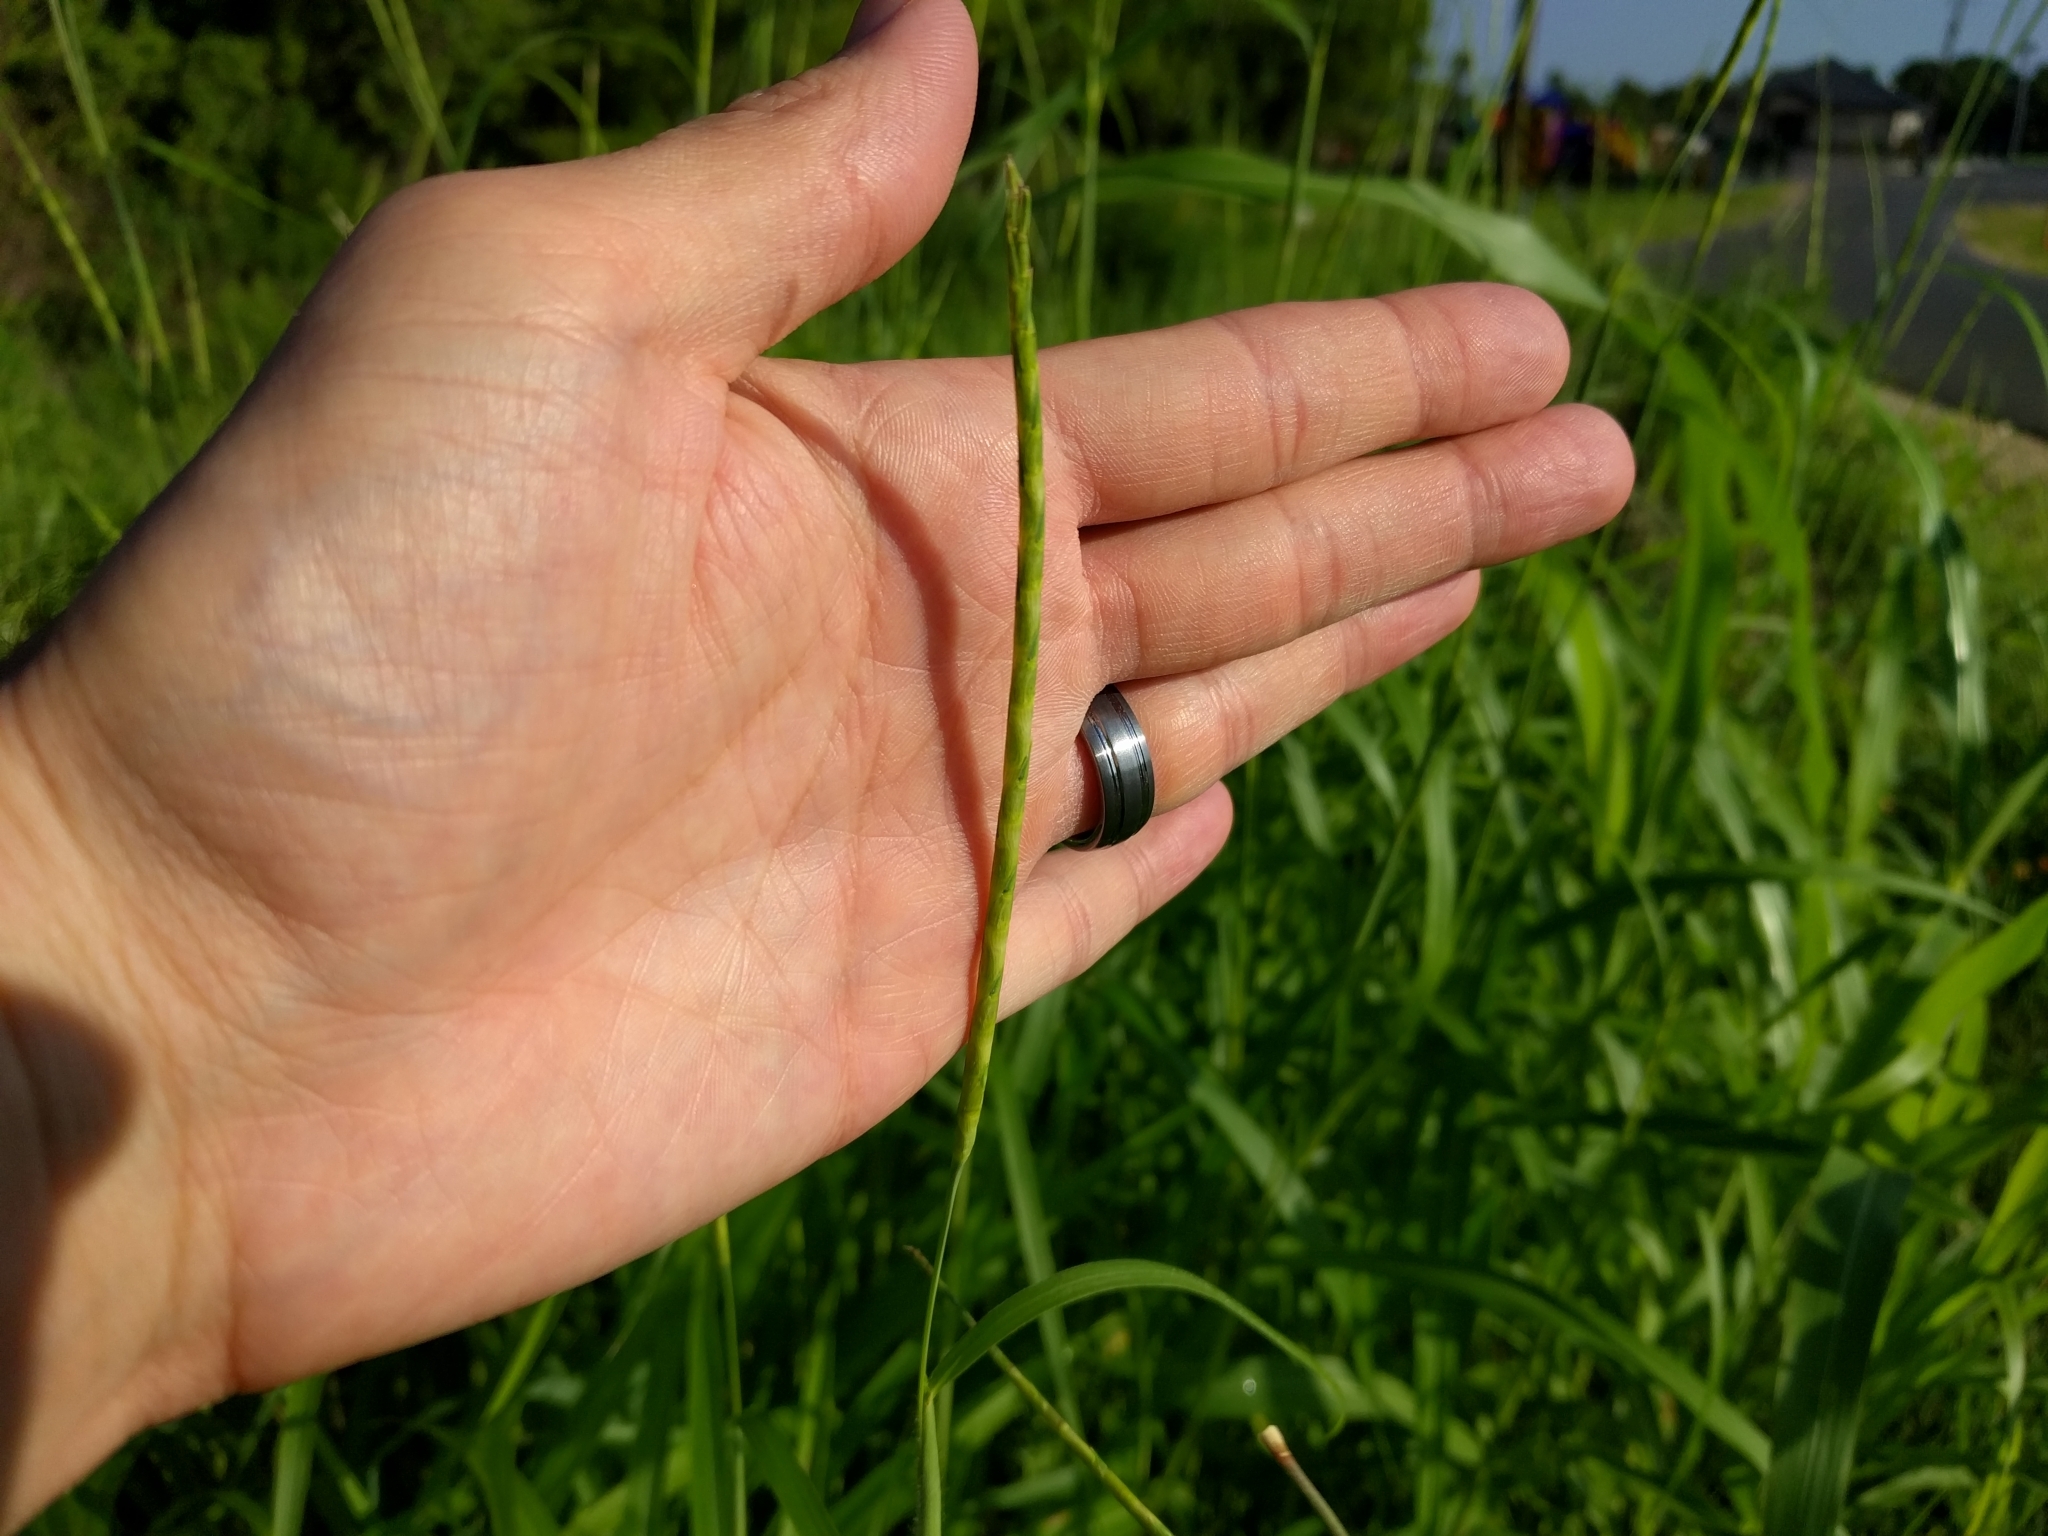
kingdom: Plantae
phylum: Tracheophyta
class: Liliopsida
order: Poales
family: Poaceae
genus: Rottboellia
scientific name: Rottboellia cochinchinensis
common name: Itchgrass
